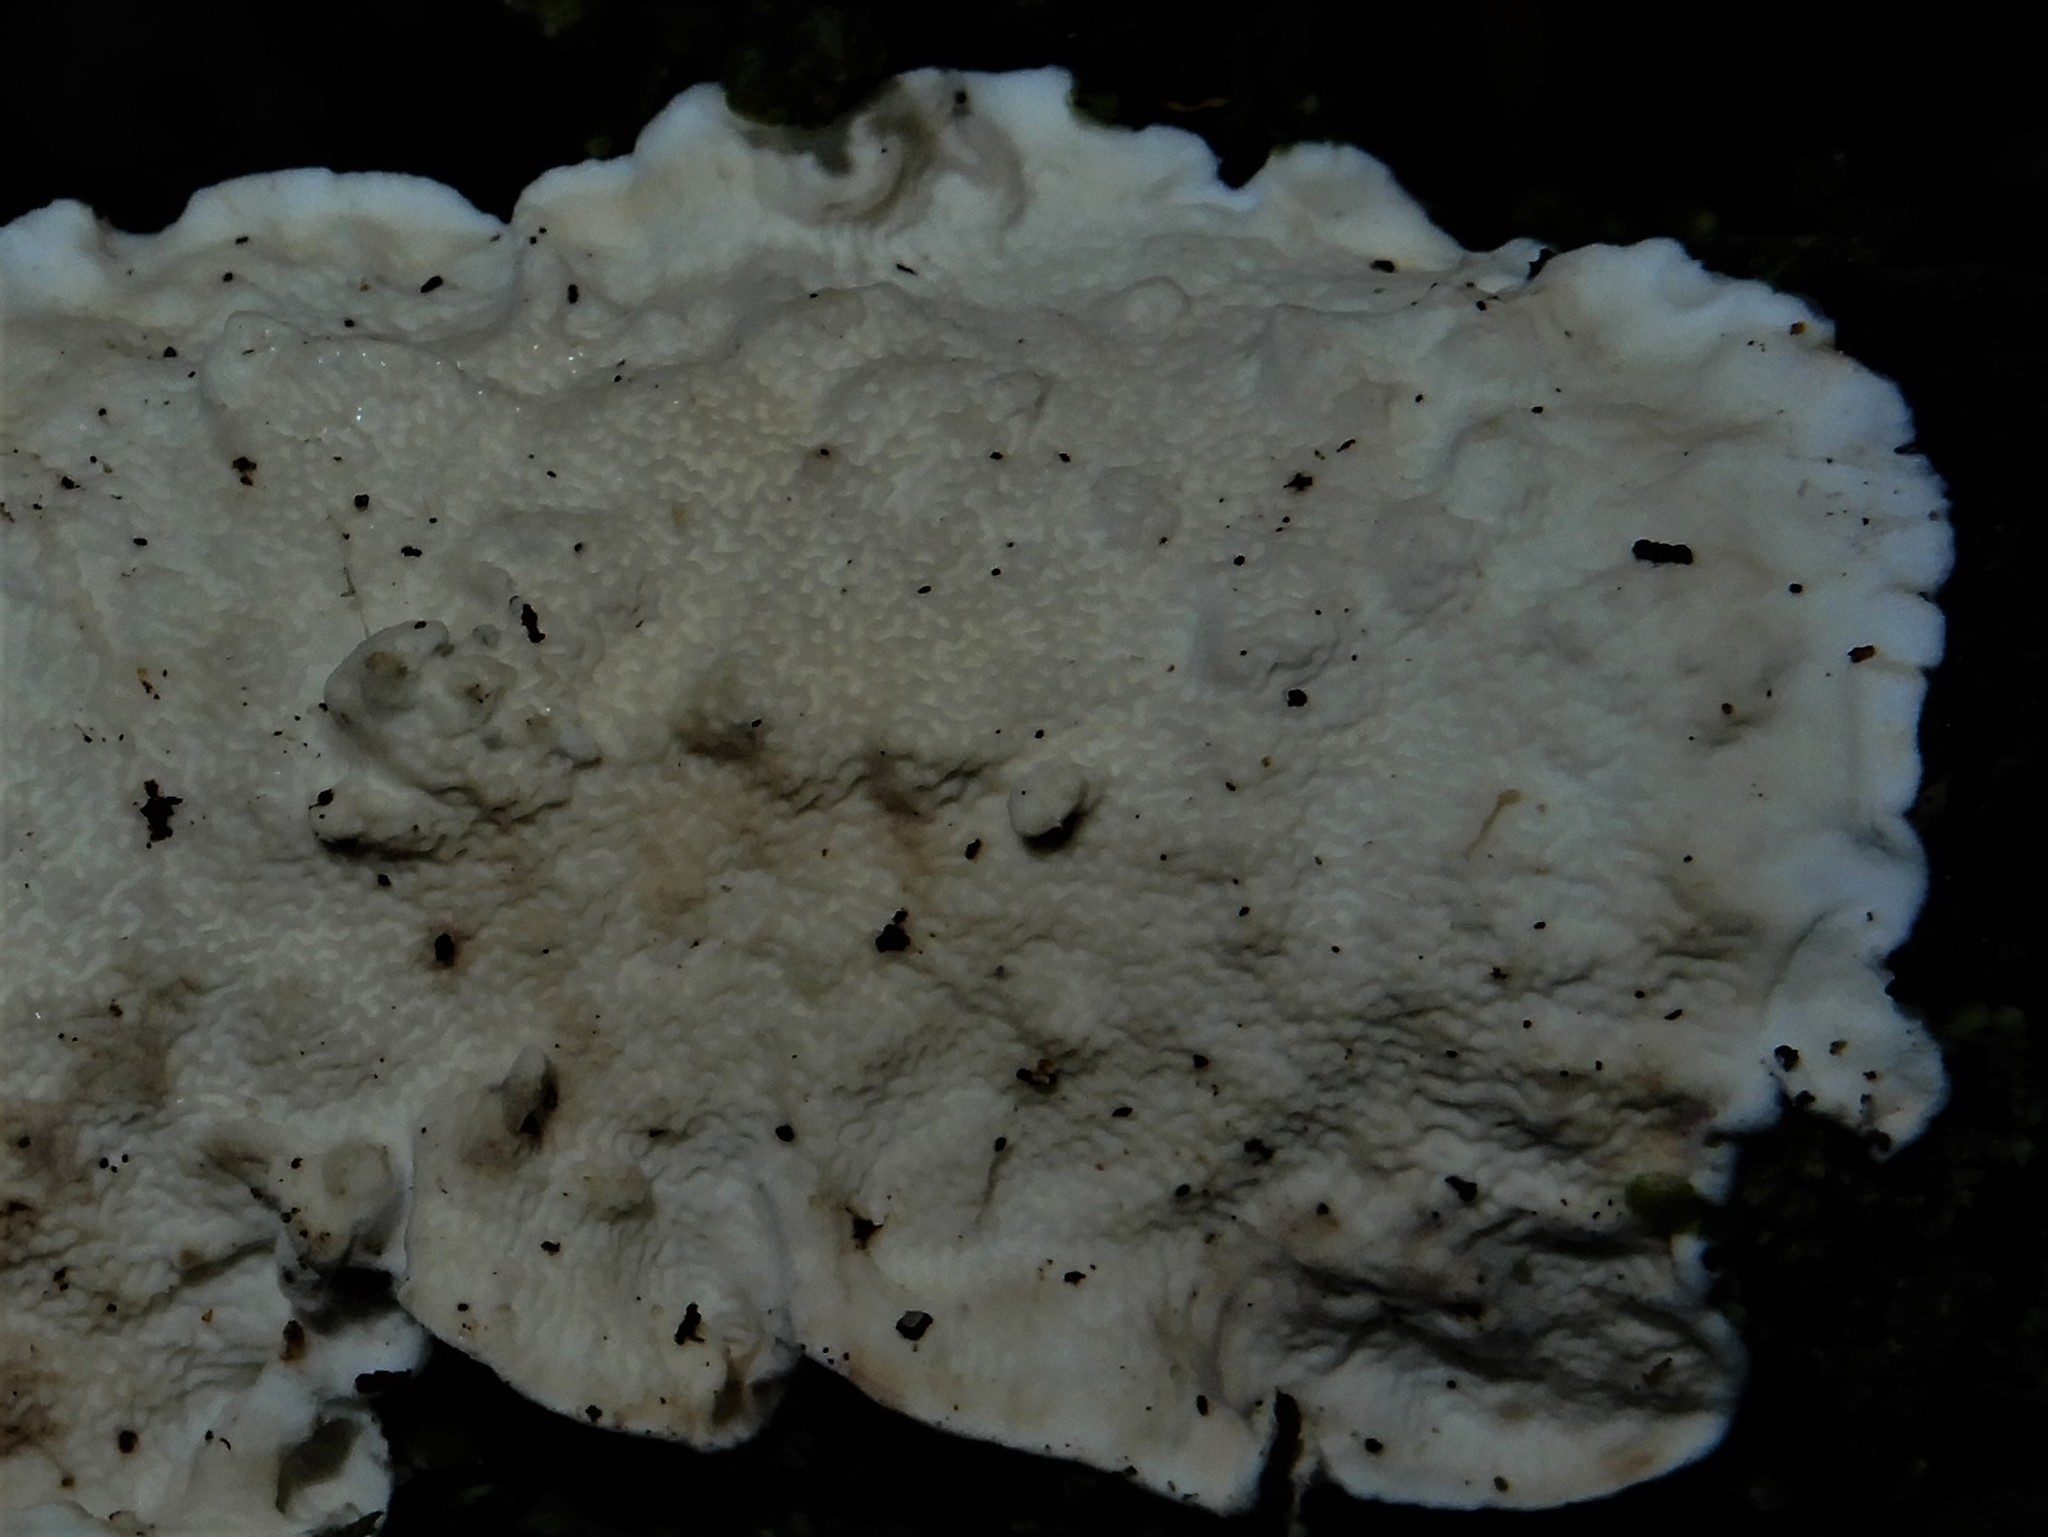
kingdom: Fungi
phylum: Basidiomycota
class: Agaricomycetes
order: Polyporales
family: Irpicaceae
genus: Byssomerulius
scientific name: Byssomerulius corium
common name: Netted crust
